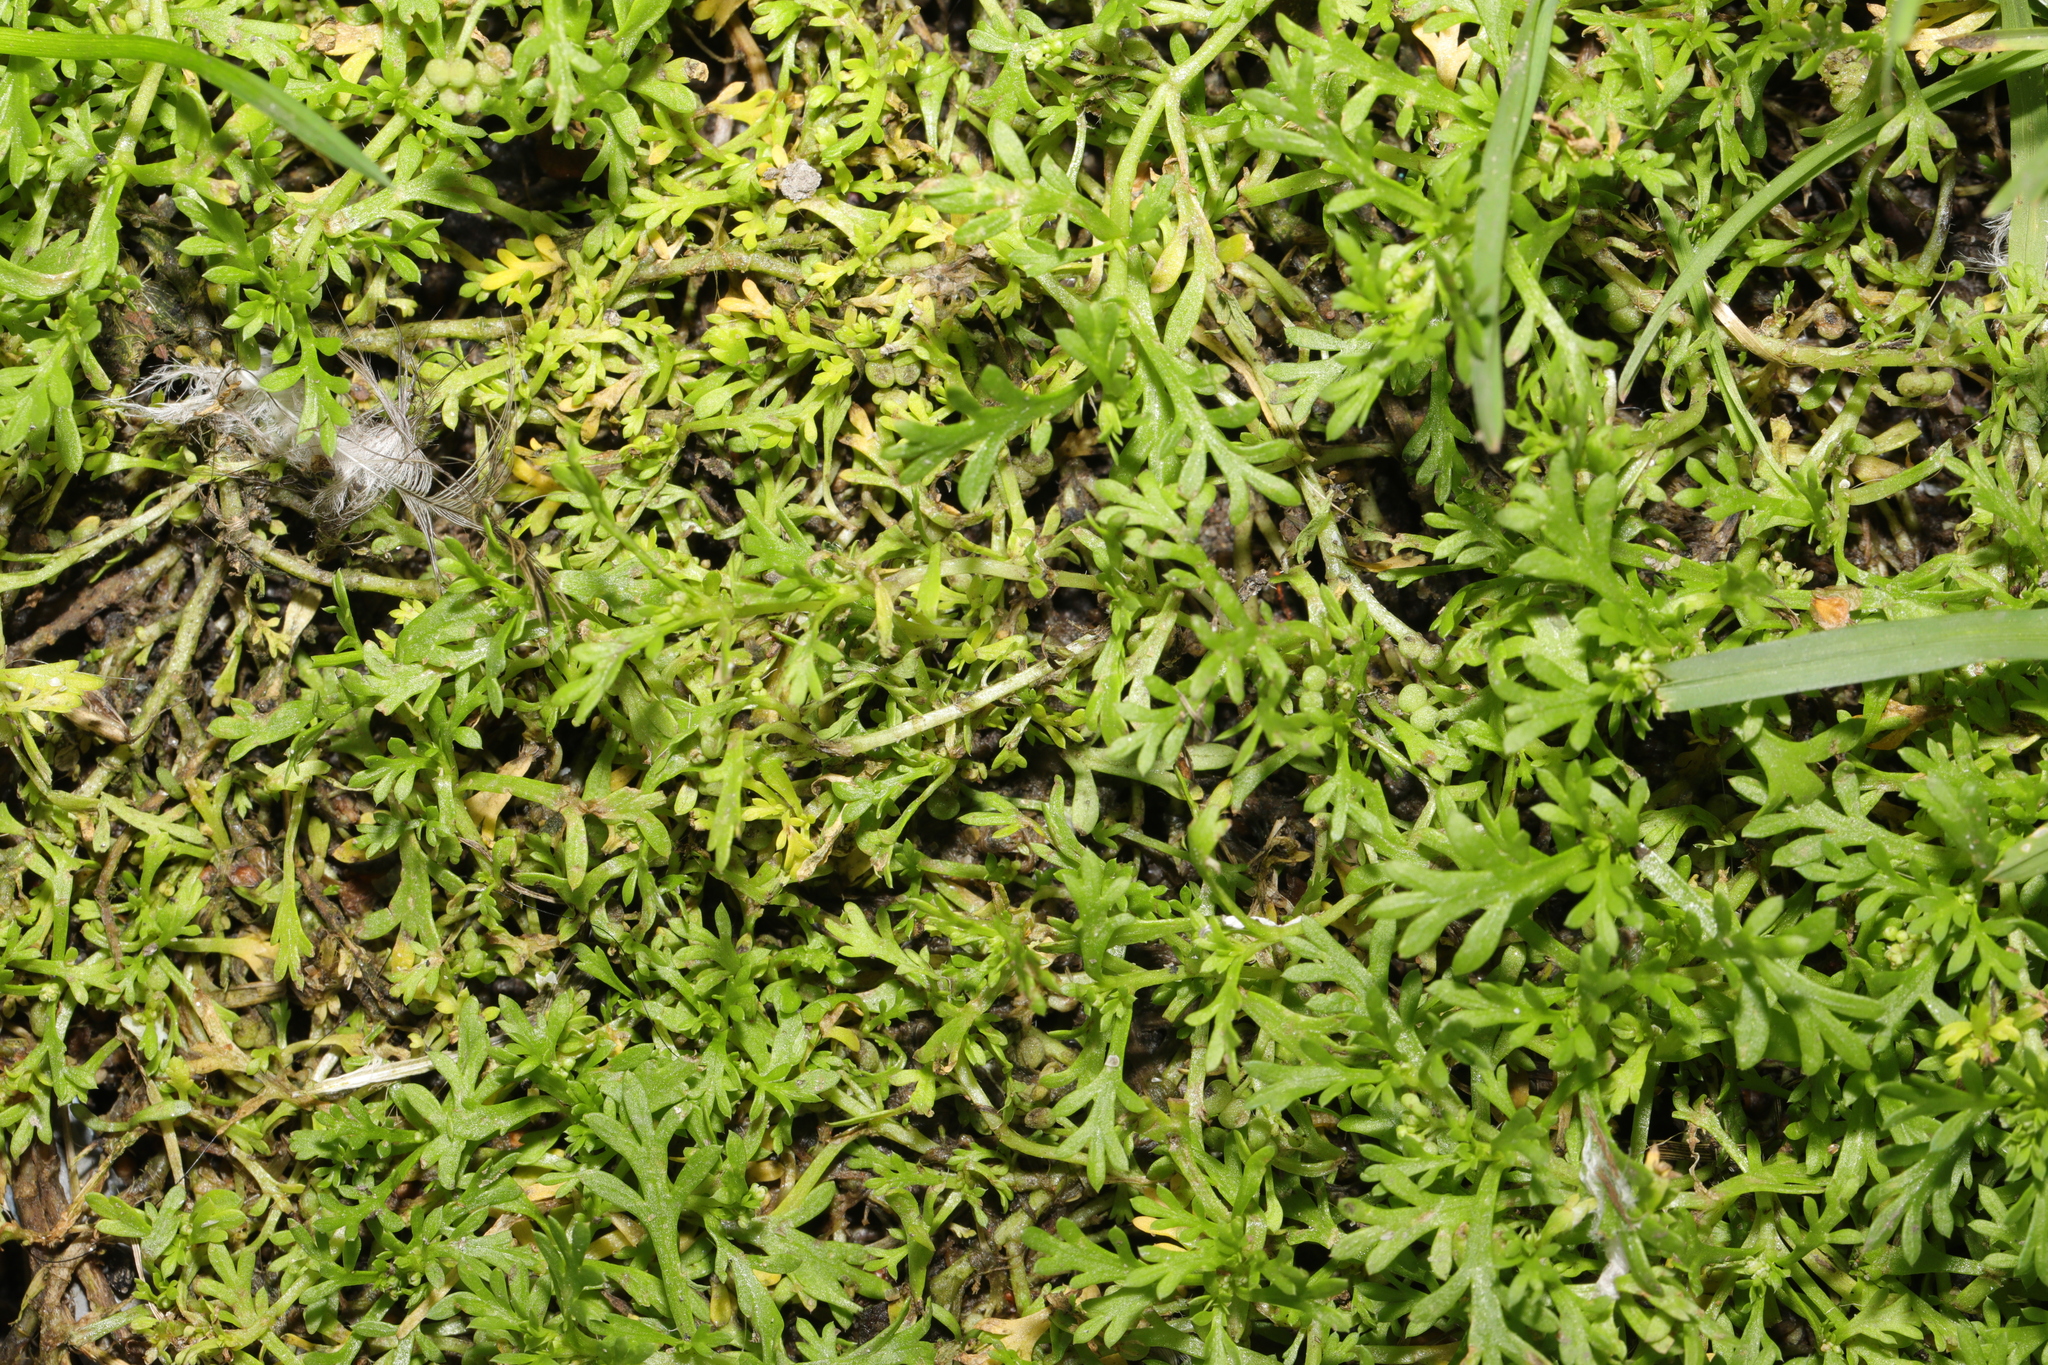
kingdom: Plantae
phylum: Tracheophyta
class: Magnoliopsida
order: Brassicales
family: Brassicaceae
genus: Lepidium
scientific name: Lepidium didymum
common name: Lesser swinecress
